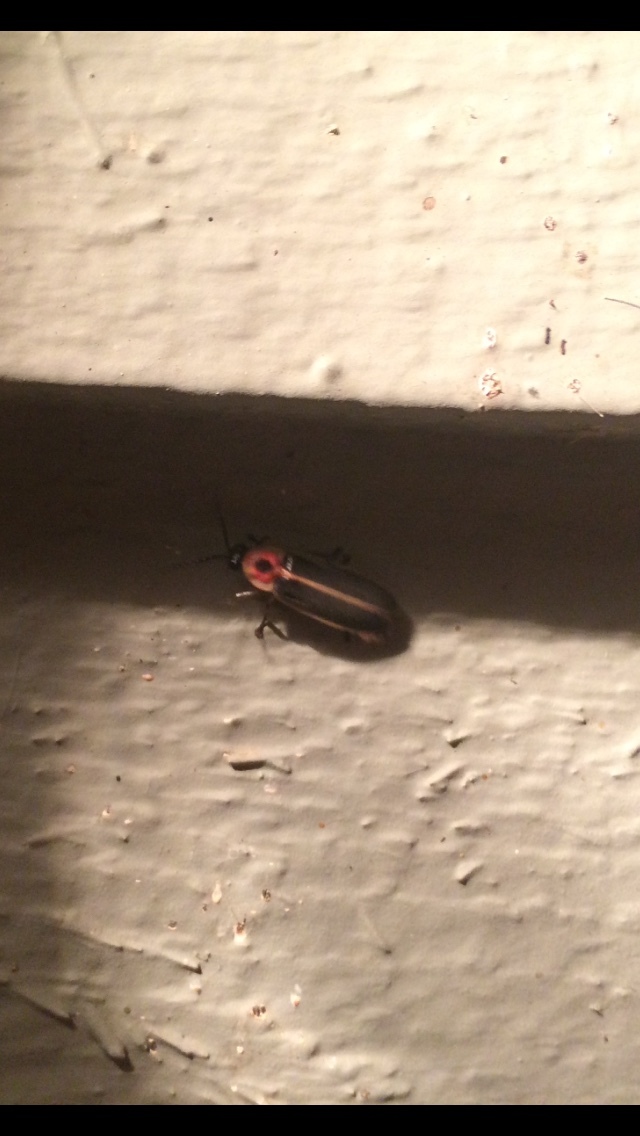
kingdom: Animalia
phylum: Arthropoda
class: Insecta
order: Coleoptera
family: Lampyridae
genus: Photinus
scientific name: Photinus pyralis
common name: Big dipper firefly
